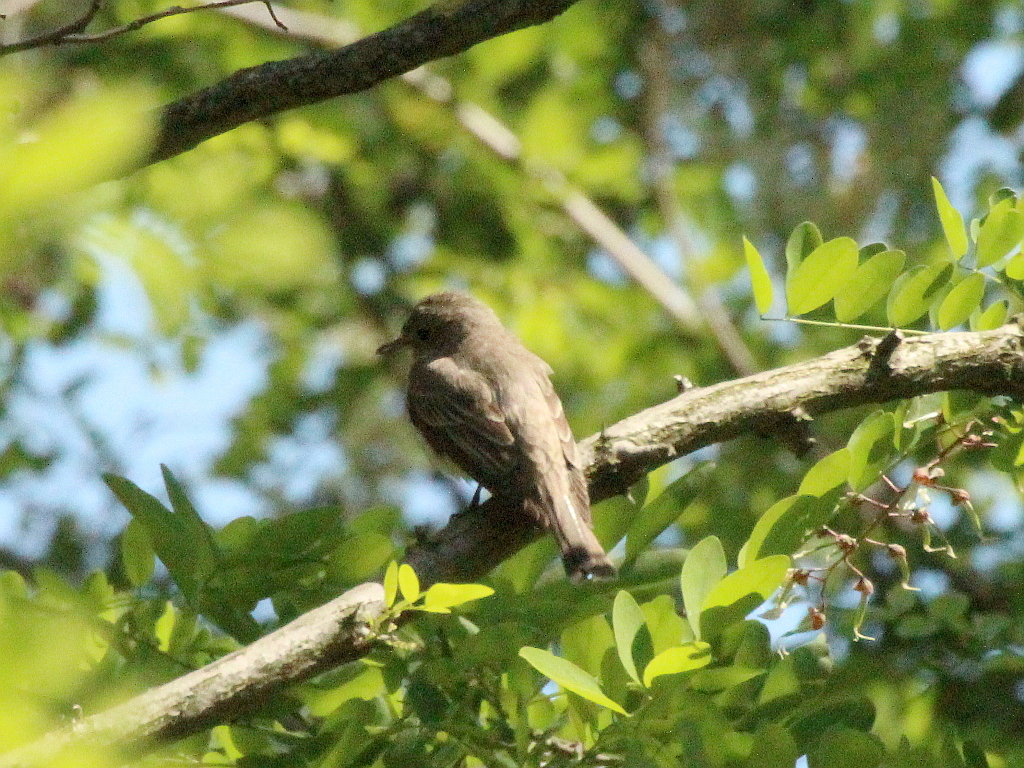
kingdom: Animalia
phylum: Chordata
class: Aves
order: Passeriformes
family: Muscicapidae
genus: Muscicapa
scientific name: Muscicapa striata
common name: Spotted flycatcher
